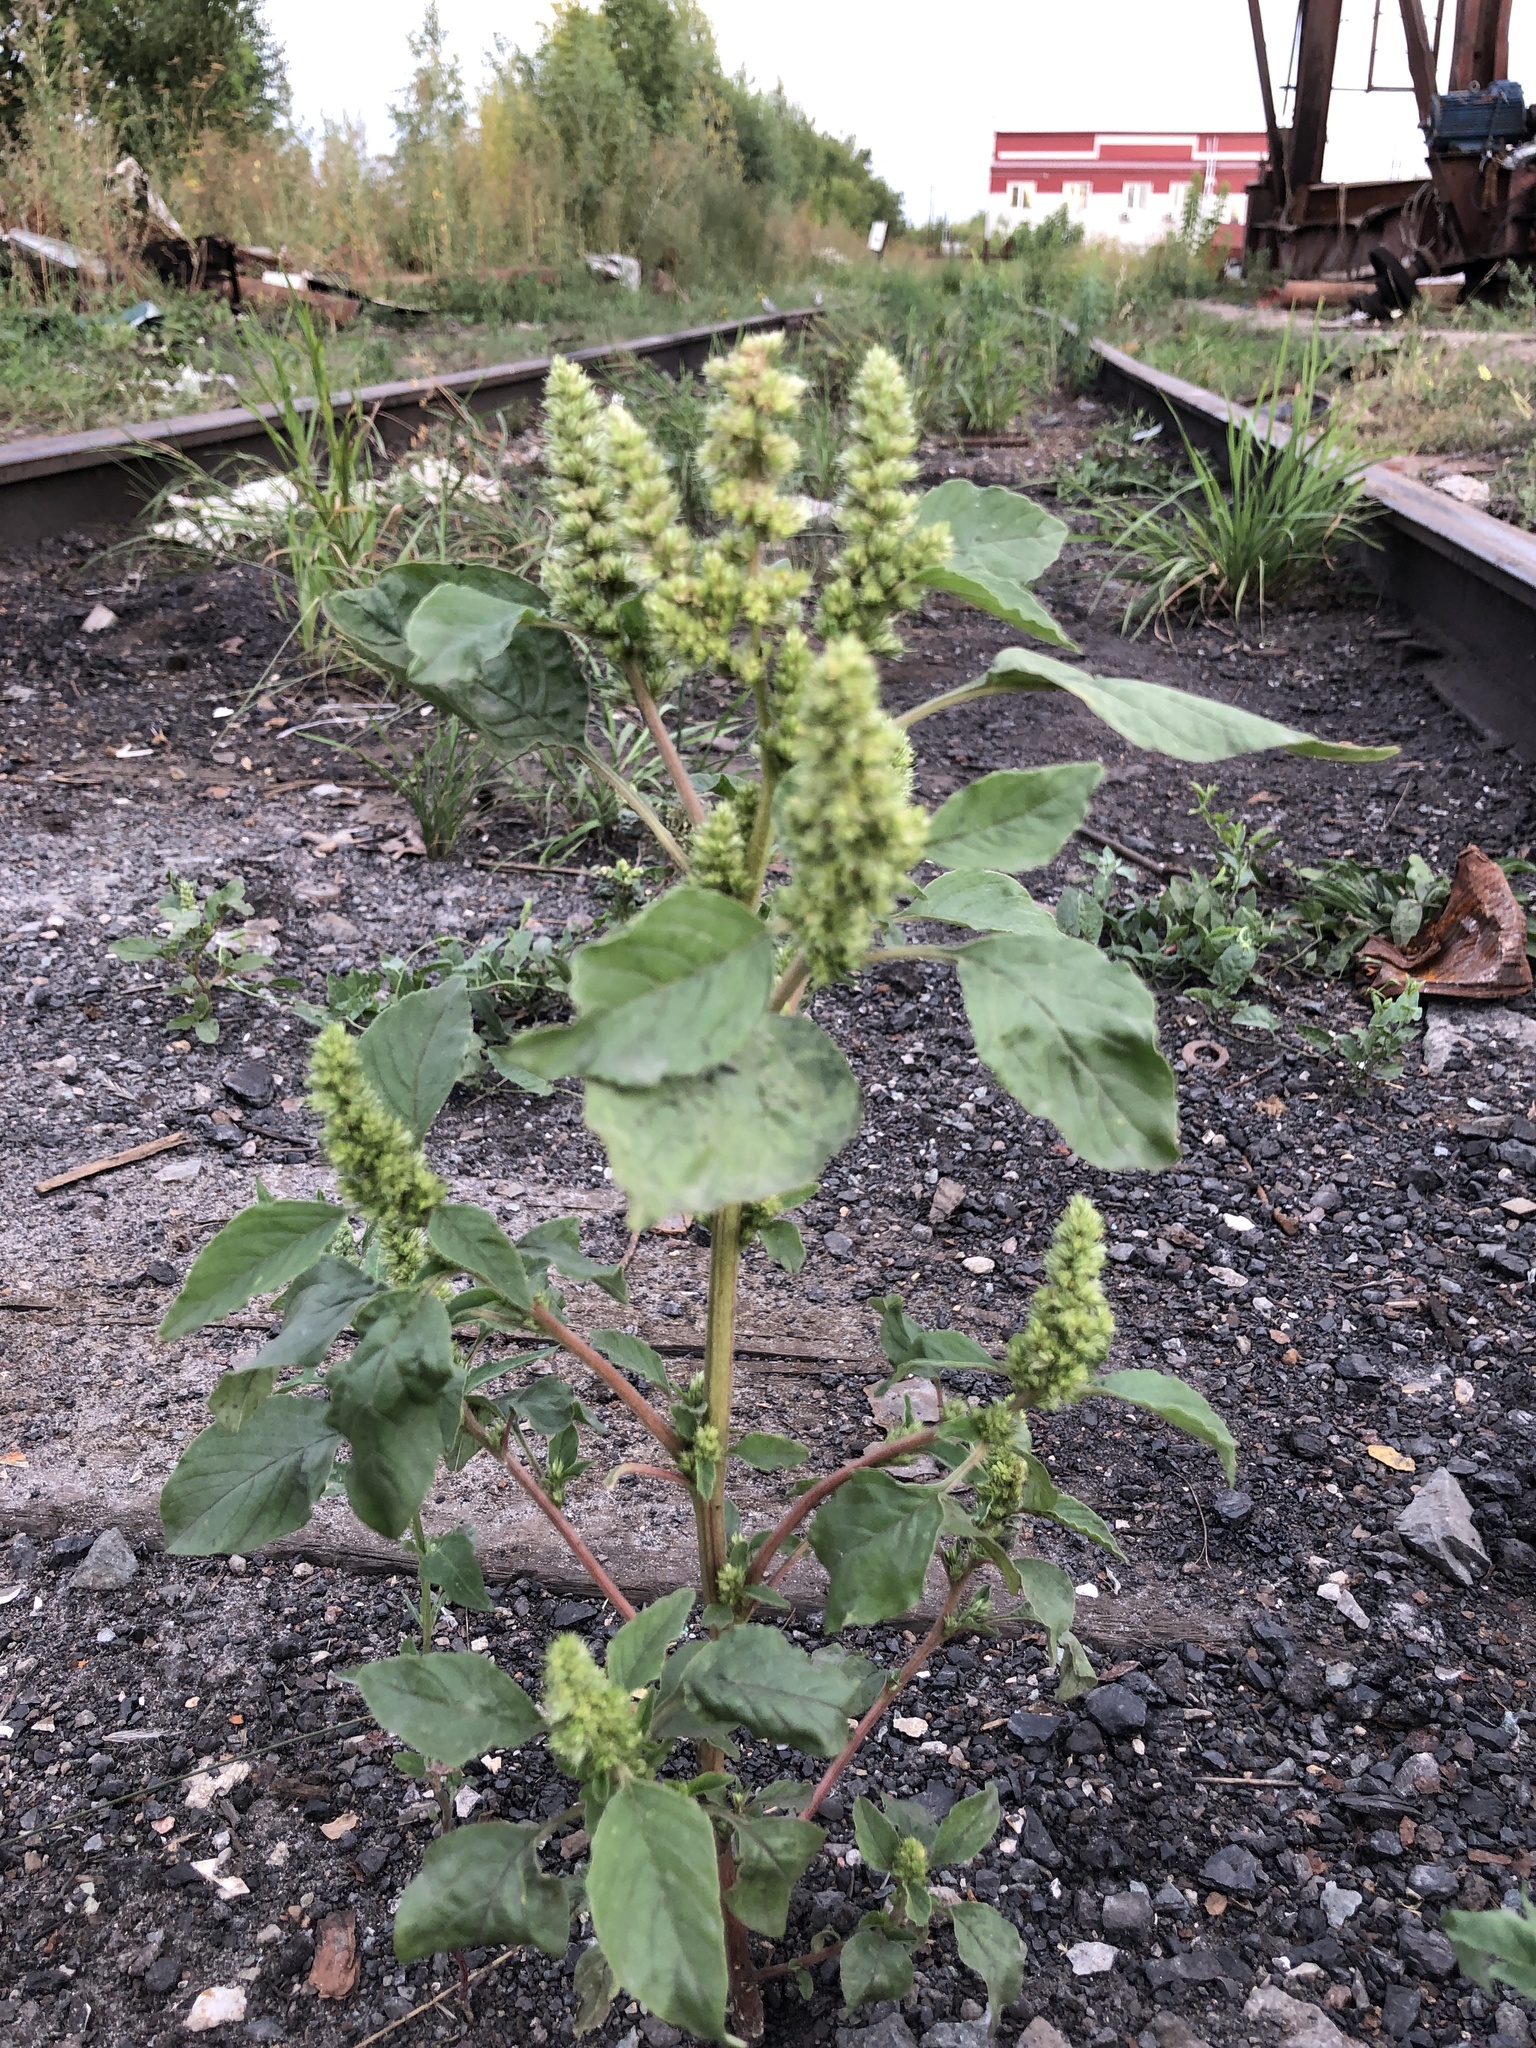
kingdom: Plantae
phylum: Tracheophyta
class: Magnoliopsida
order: Caryophyllales
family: Amaranthaceae
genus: Amaranthus
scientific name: Amaranthus retroflexus
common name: Redroot amaranth
